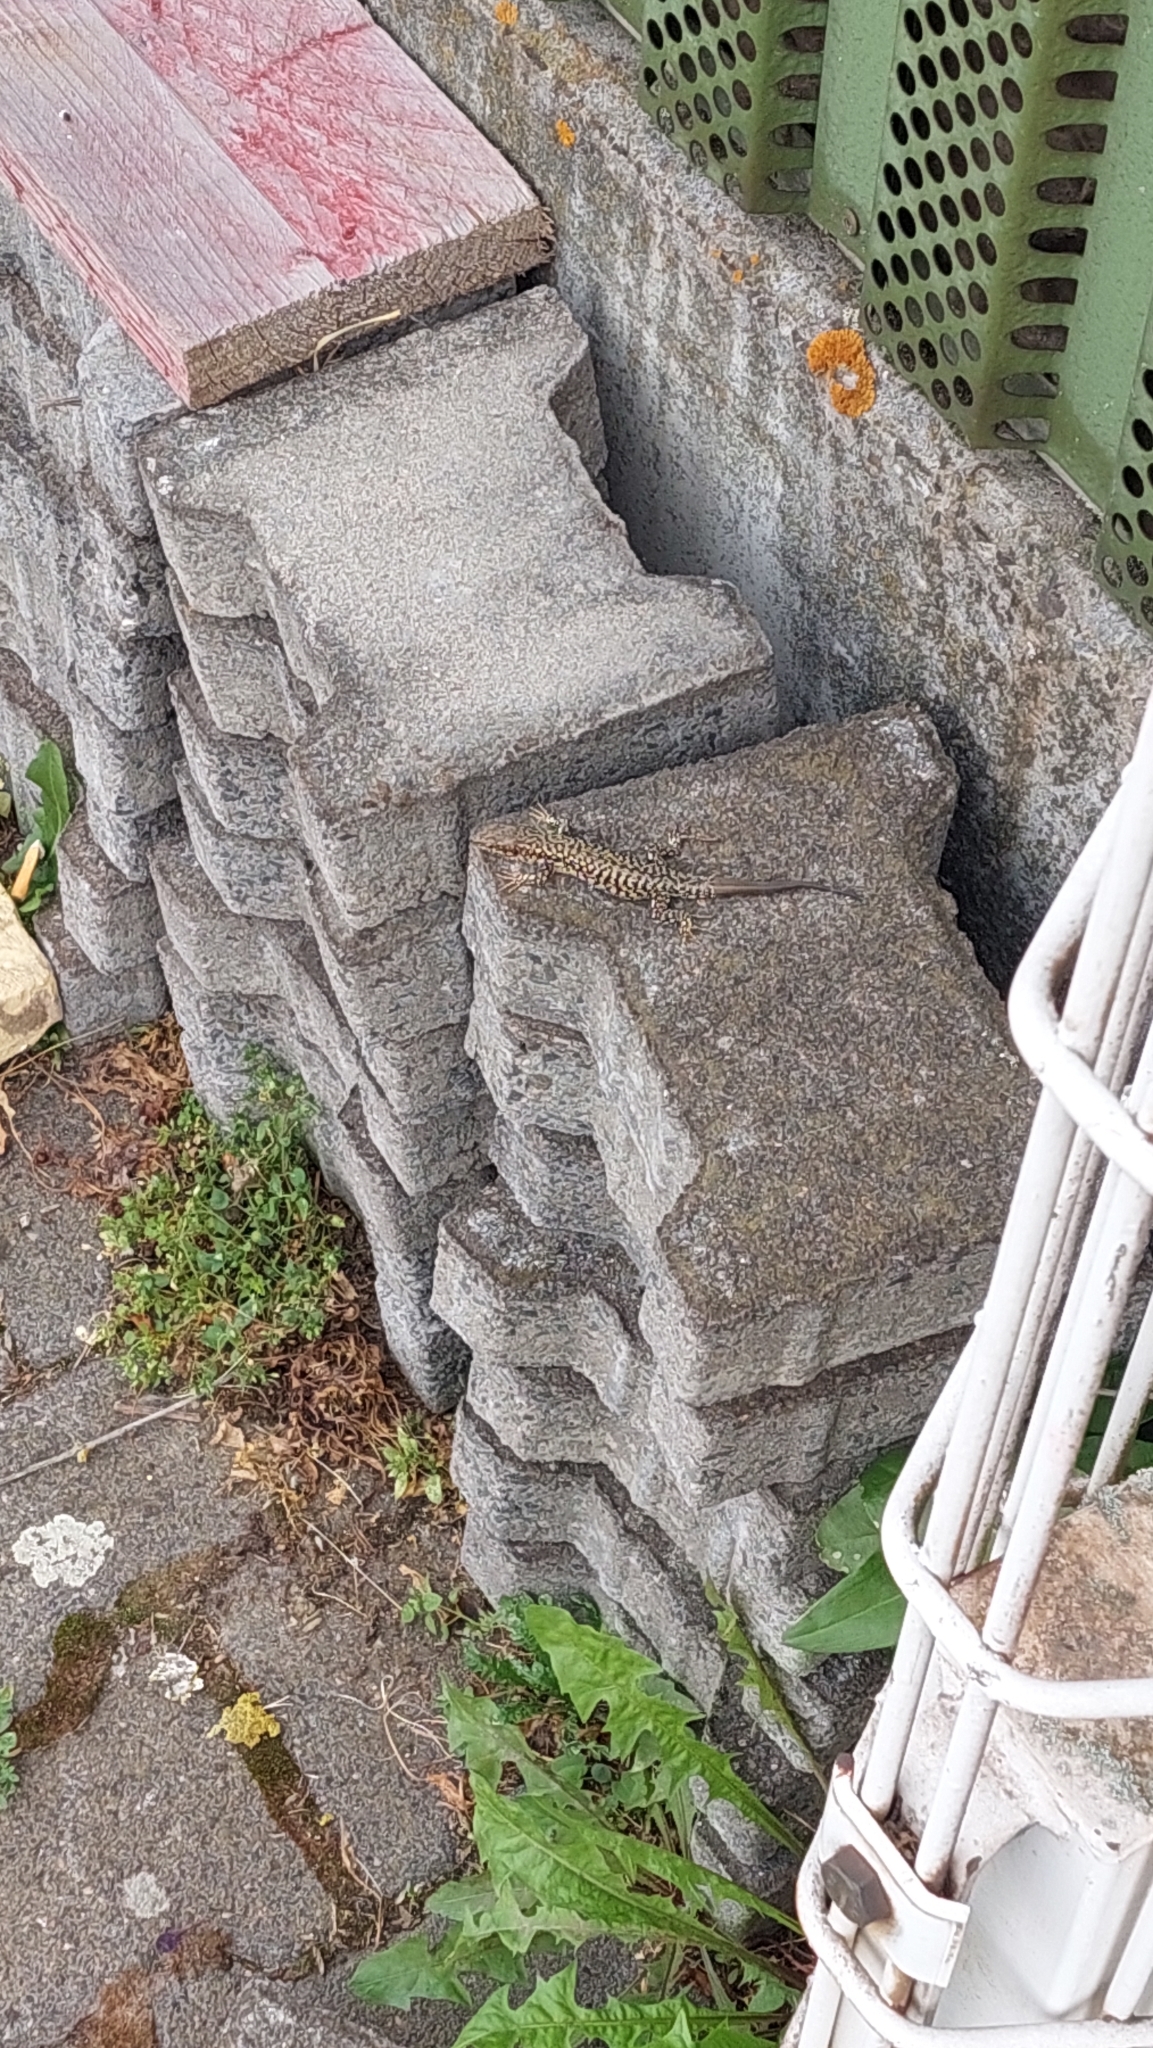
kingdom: Animalia
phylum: Chordata
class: Squamata
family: Lacertidae
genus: Podarcis
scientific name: Podarcis muralis
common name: Common wall lizard
